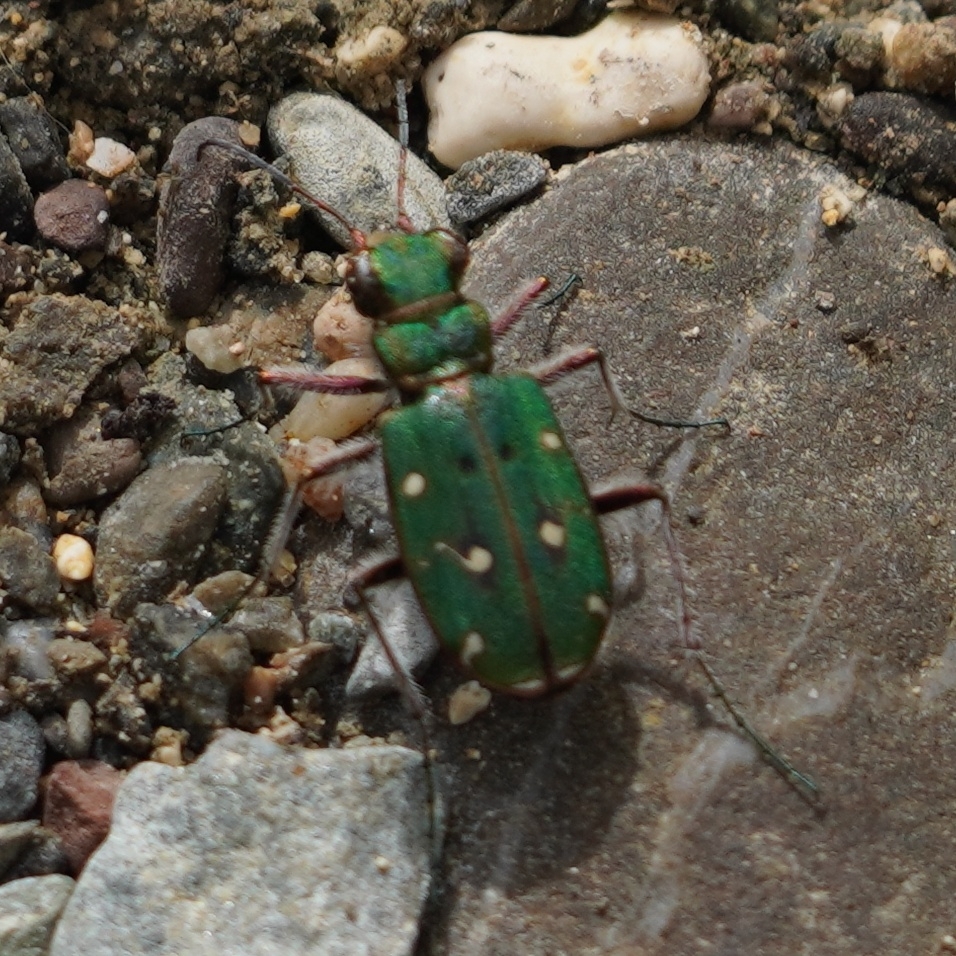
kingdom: Animalia
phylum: Arthropoda
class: Insecta
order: Coleoptera
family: Carabidae
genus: Cicindela
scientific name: Cicindela campestris
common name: Common tiger beetle
